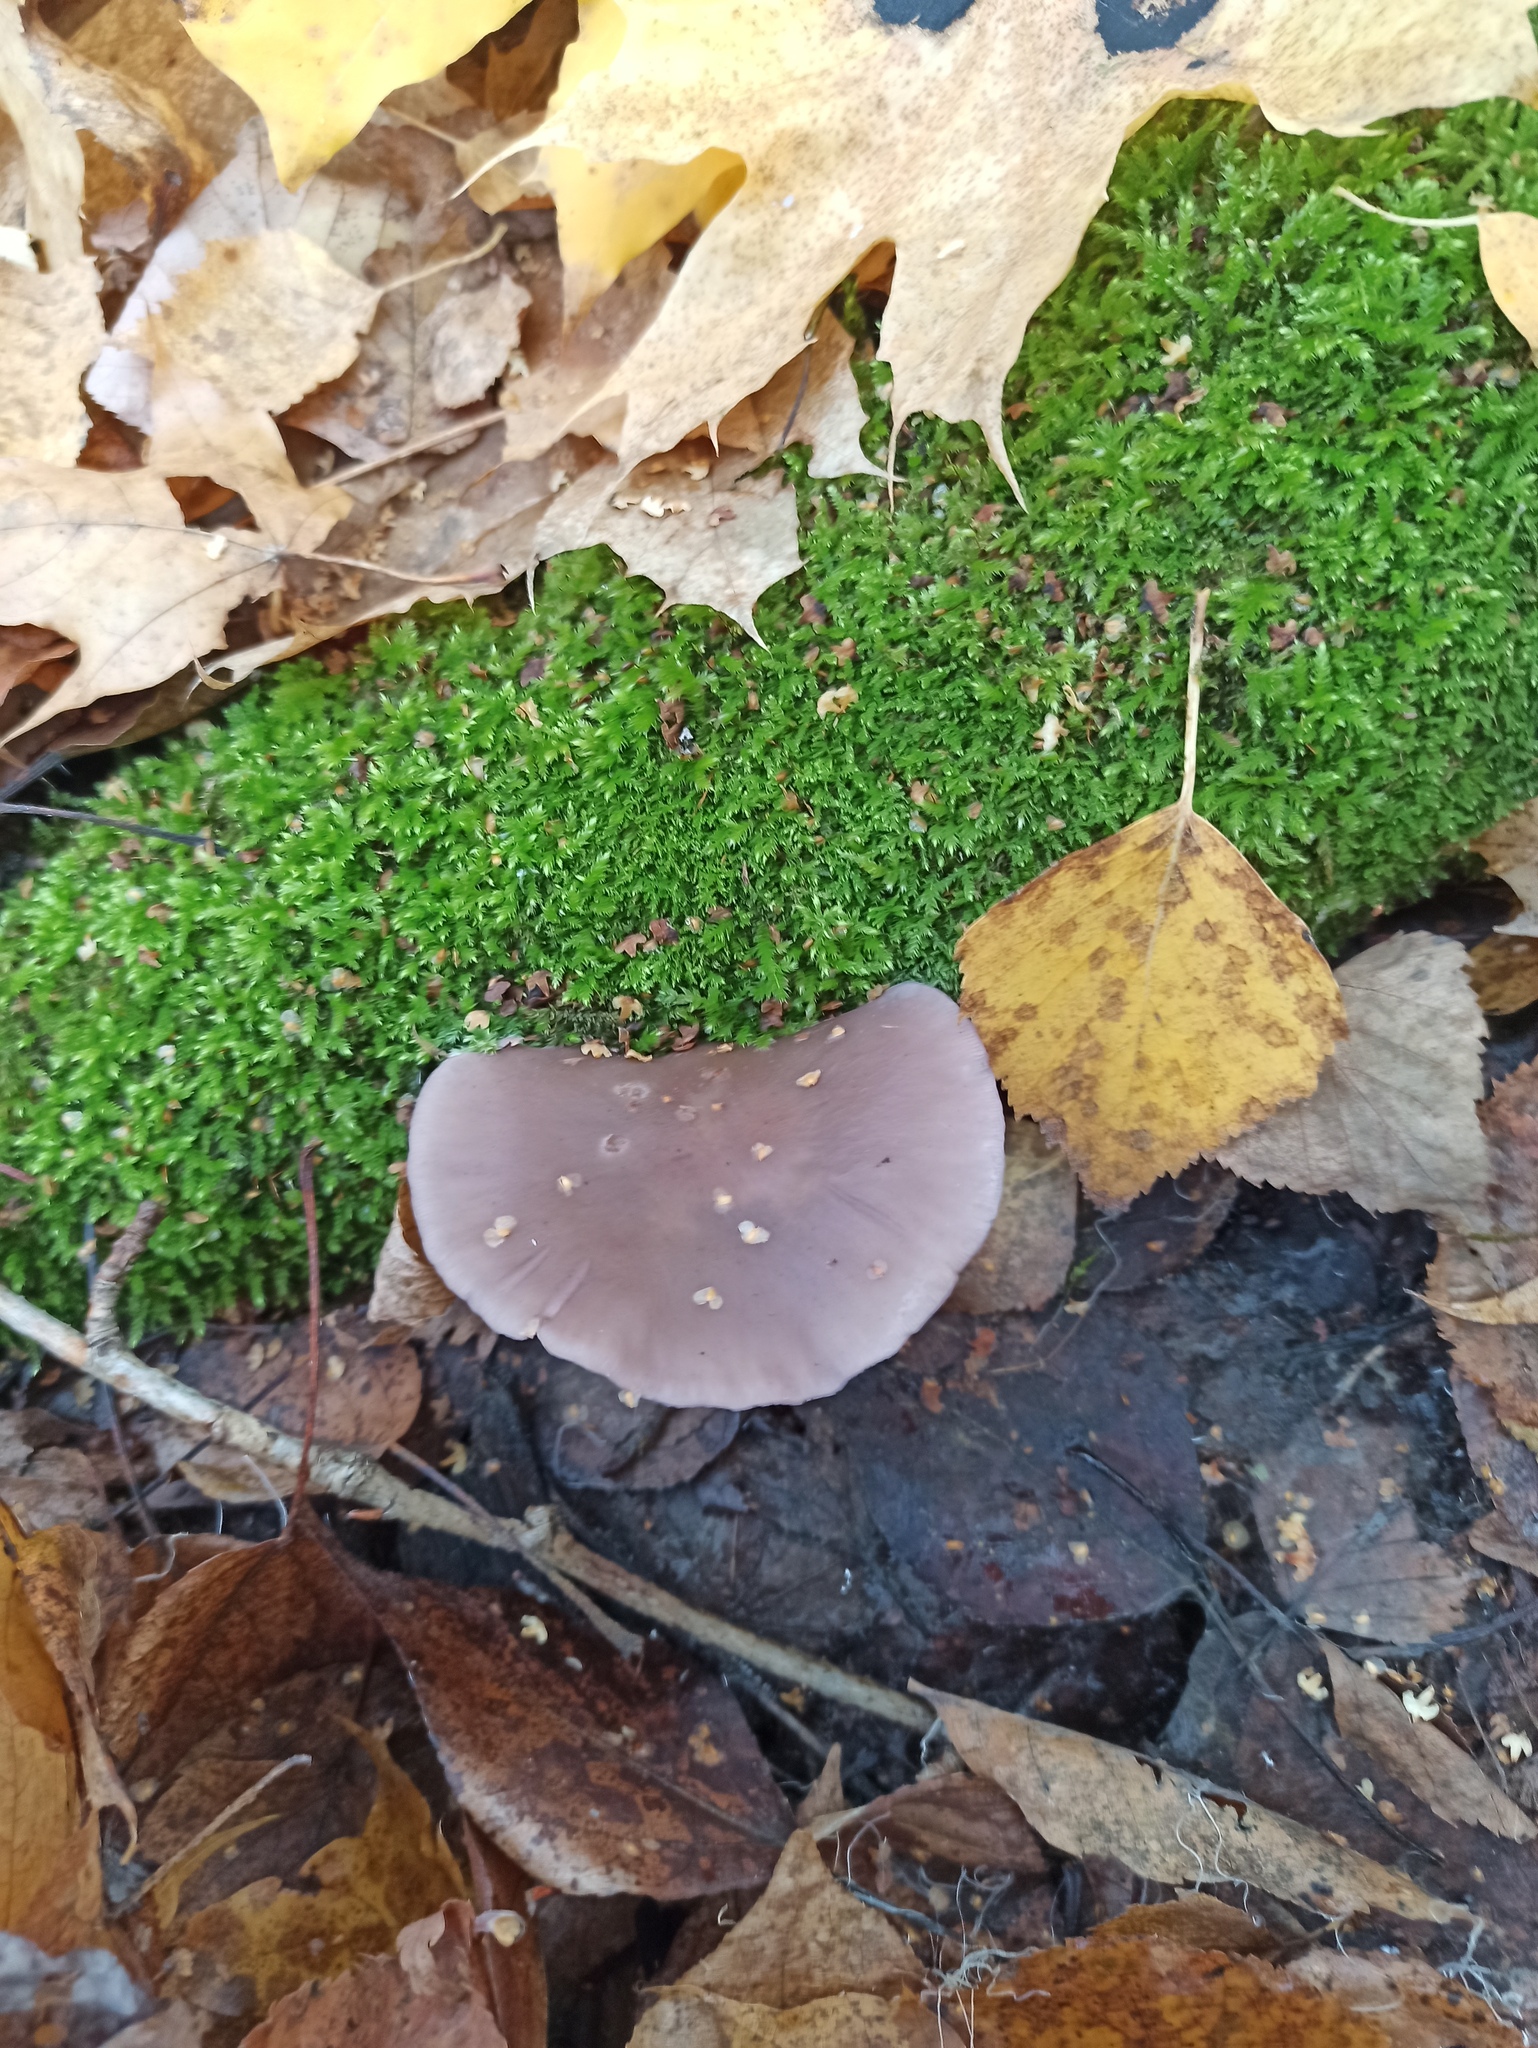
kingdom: Fungi
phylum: Basidiomycota
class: Agaricomycetes
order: Agaricales
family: Tricholomataceae
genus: Collybia
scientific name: Collybia
